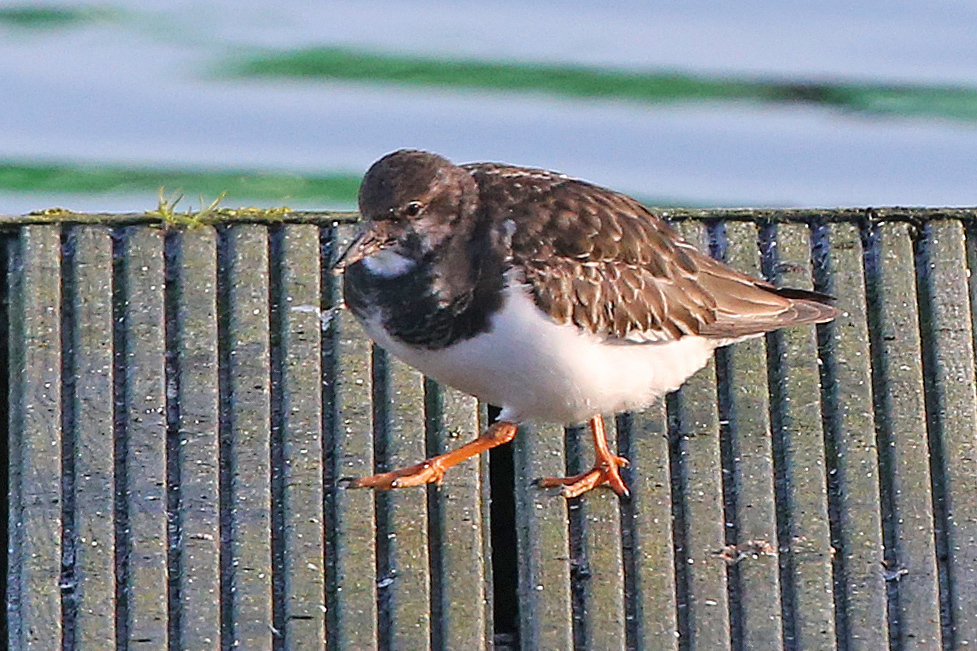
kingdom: Animalia
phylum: Chordata
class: Aves
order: Charadriiformes
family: Scolopacidae
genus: Arenaria
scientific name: Arenaria interpres
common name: Ruddy turnstone
